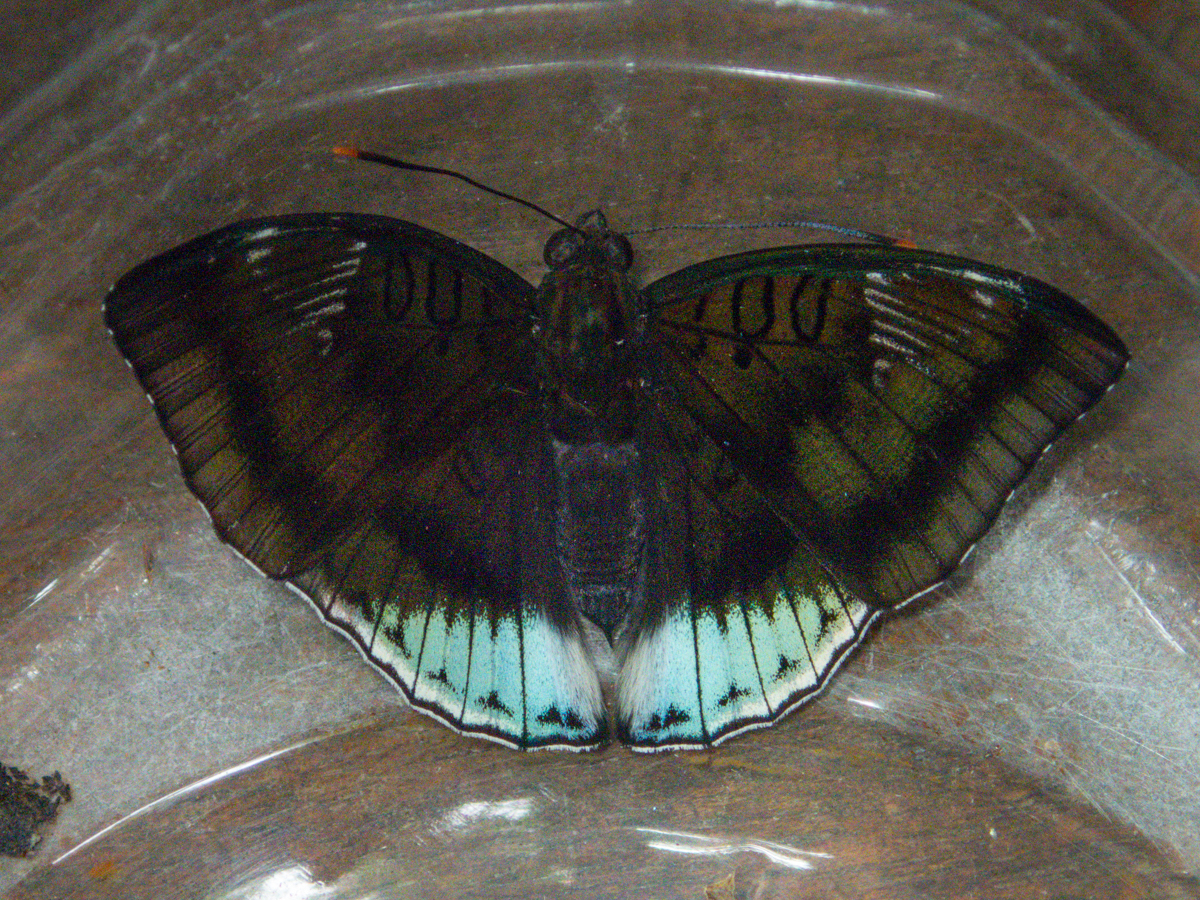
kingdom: Animalia
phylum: Arthropoda
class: Insecta
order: Lepidoptera
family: Nymphalidae
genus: Euthalia
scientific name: Euthalia phemius
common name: White-edged blue baron
